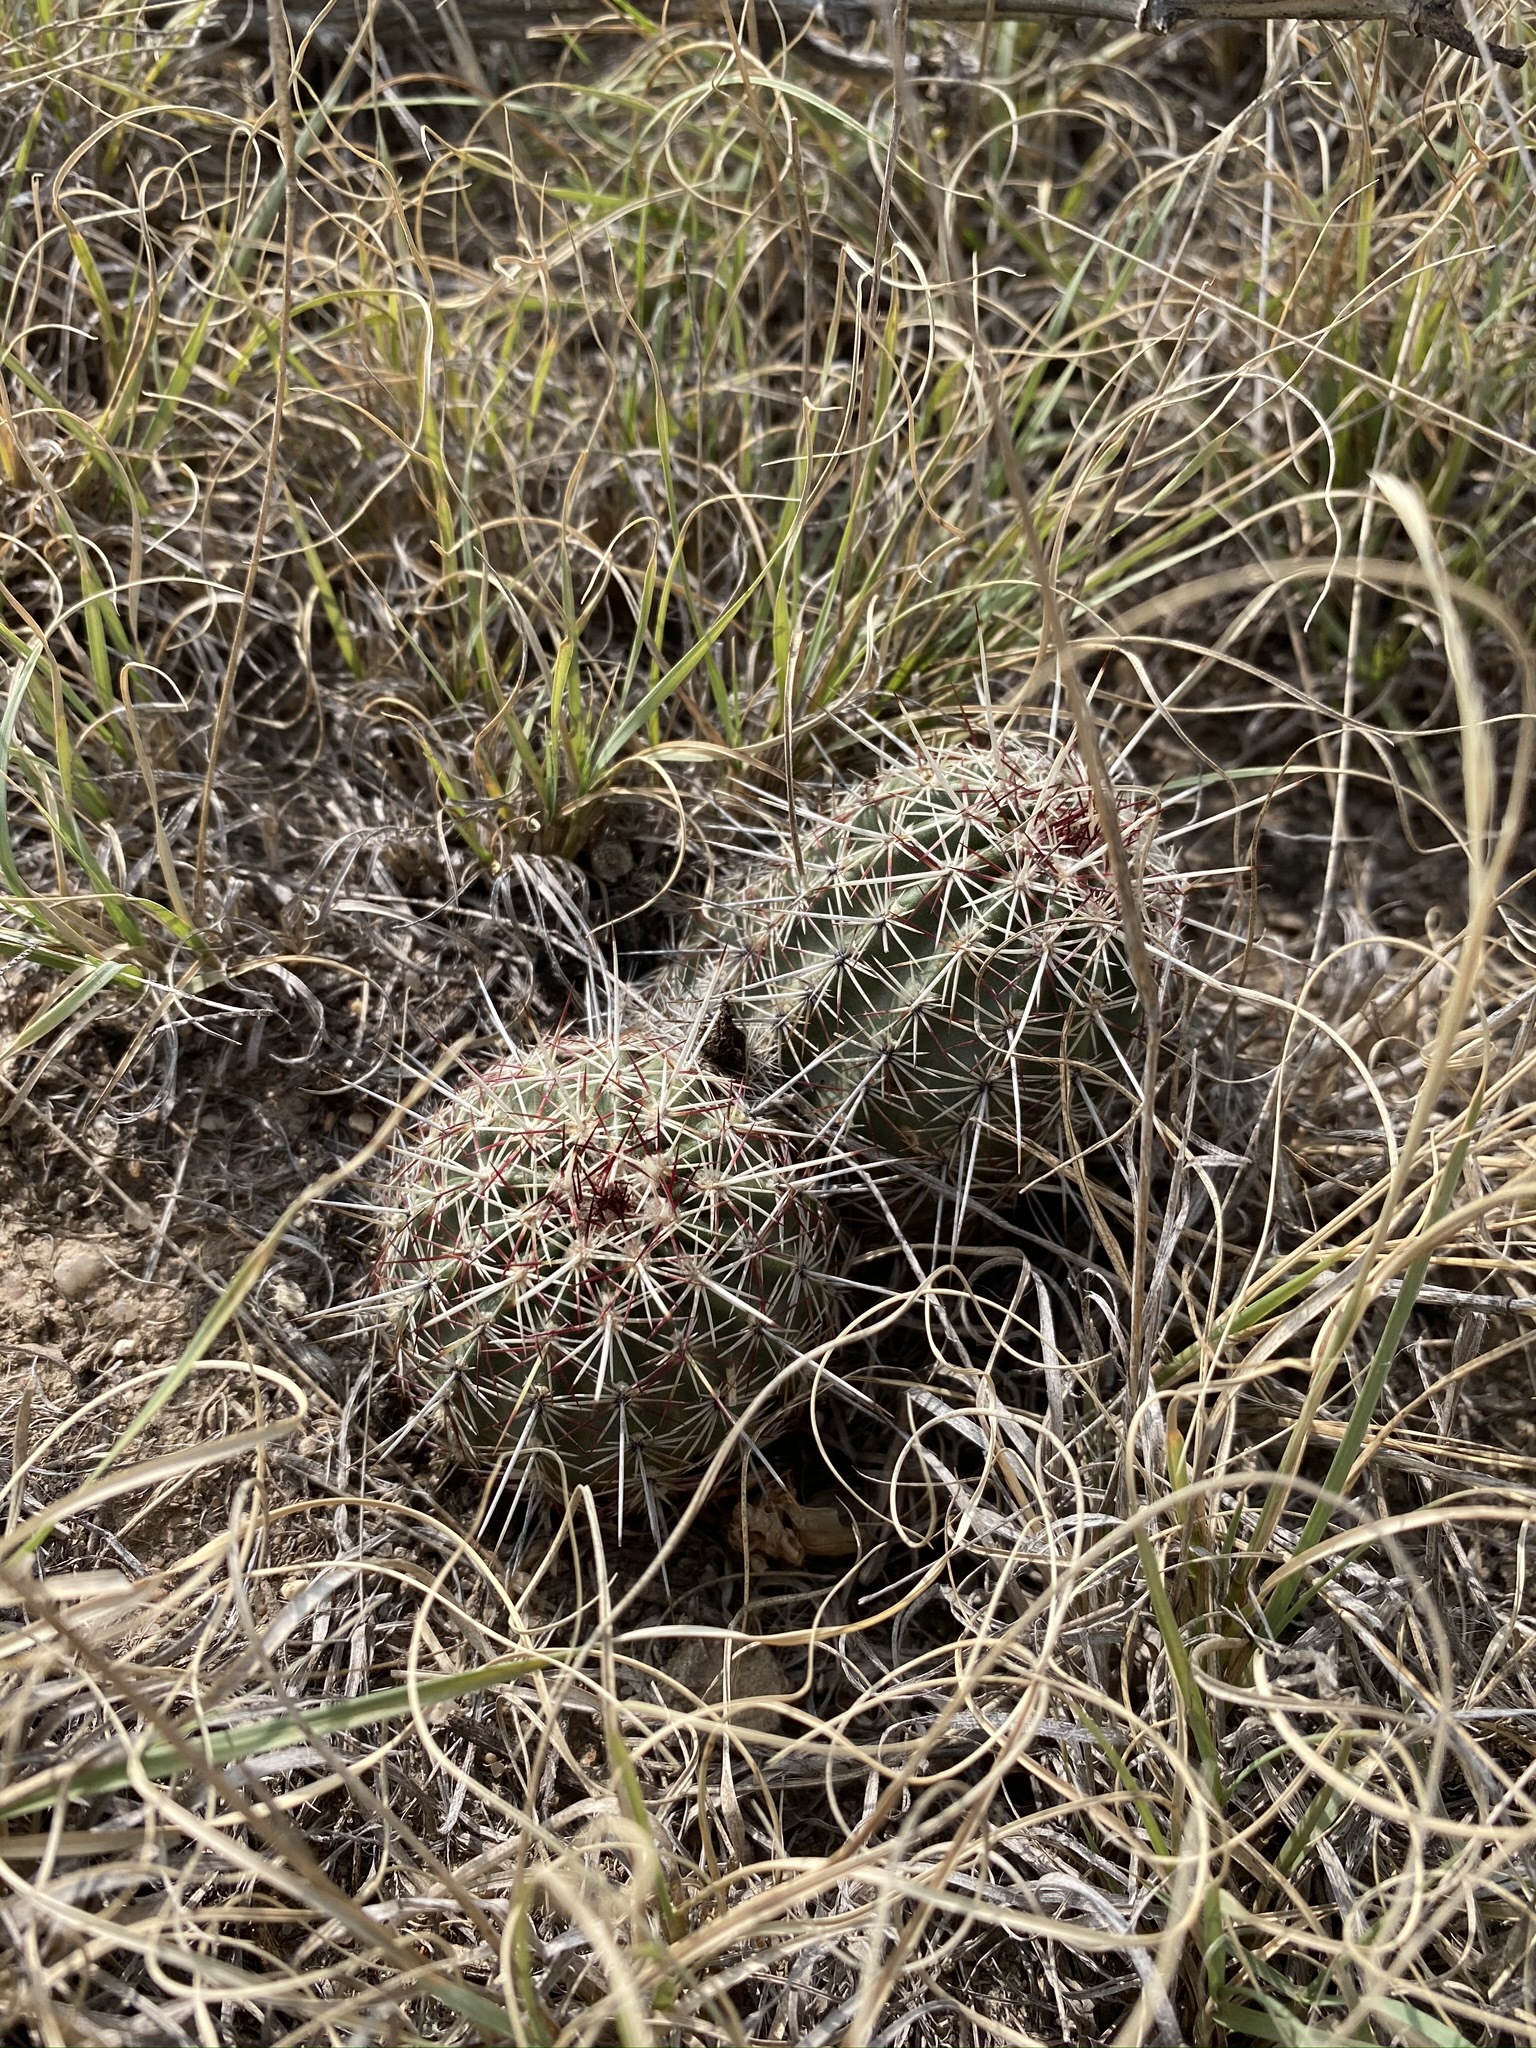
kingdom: Plantae
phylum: Tracheophyta
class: Magnoliopsida
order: Caryophyllales
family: Cactaceae
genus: Echinocereus
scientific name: Echinocereus viridiflorus
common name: Nylon hedgehog cactus
